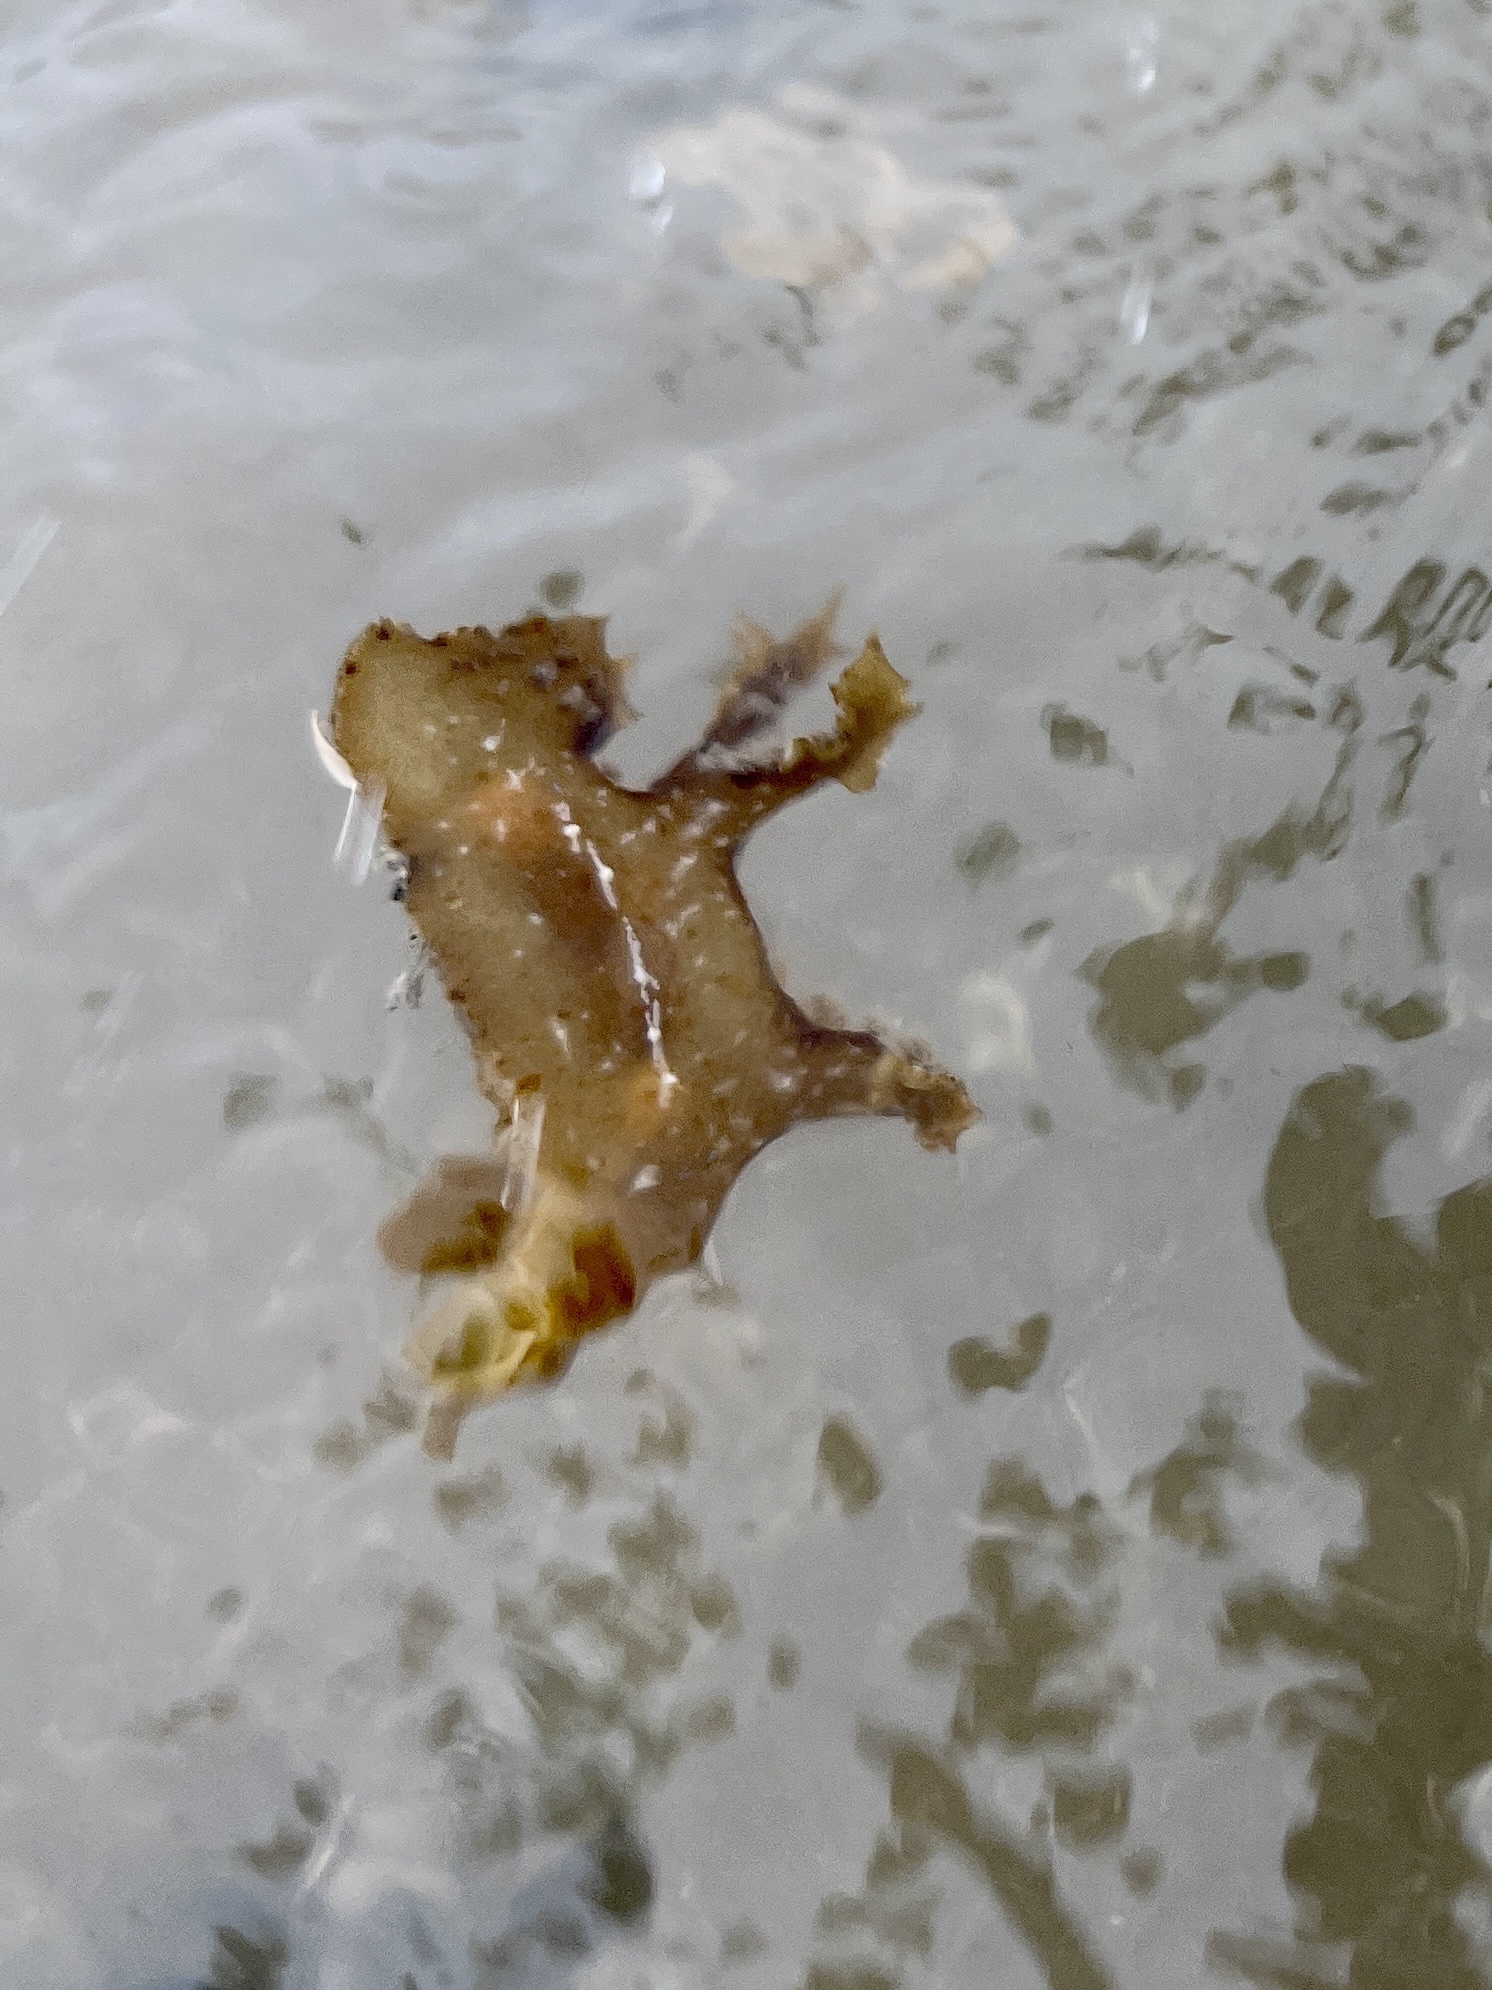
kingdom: Animalia
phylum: Mollusca
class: Gastropoda
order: Nudibranchia
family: Scyllaeidae
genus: Scyllaea
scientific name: Scyllaea pelagica
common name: Sargassum nudibranch
